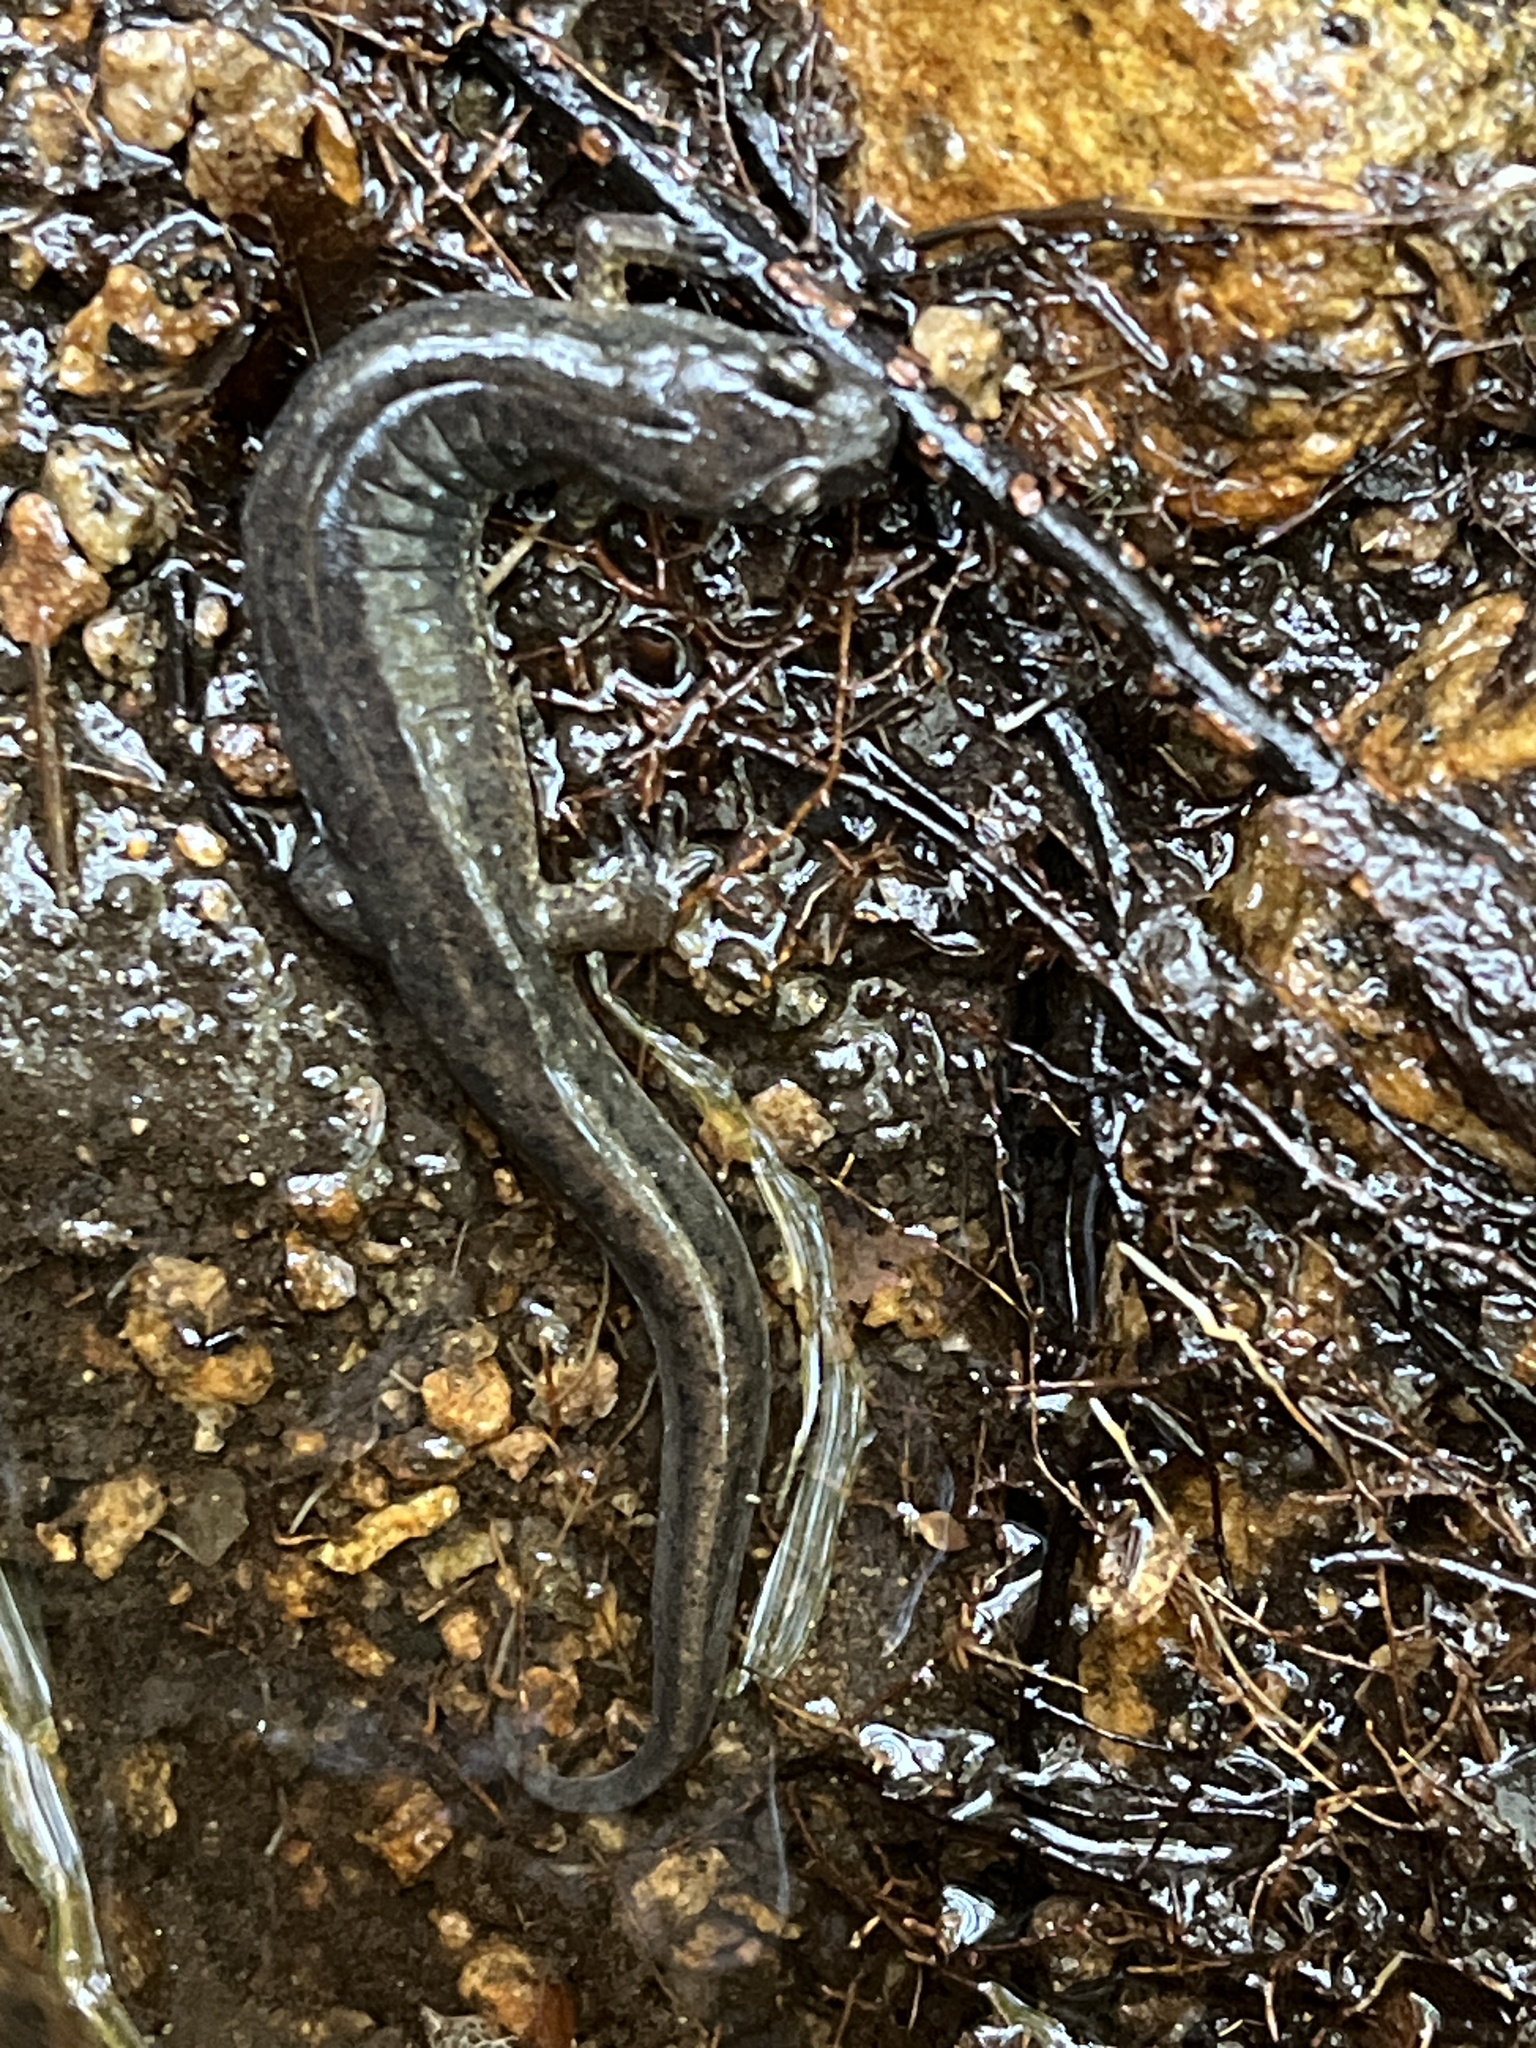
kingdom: Animalia
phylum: Chordata
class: Amphibia
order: Caudata
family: Plethodontidae
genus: Desmognathus
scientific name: Desmognathus fuscus
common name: Northern dusky salamander
